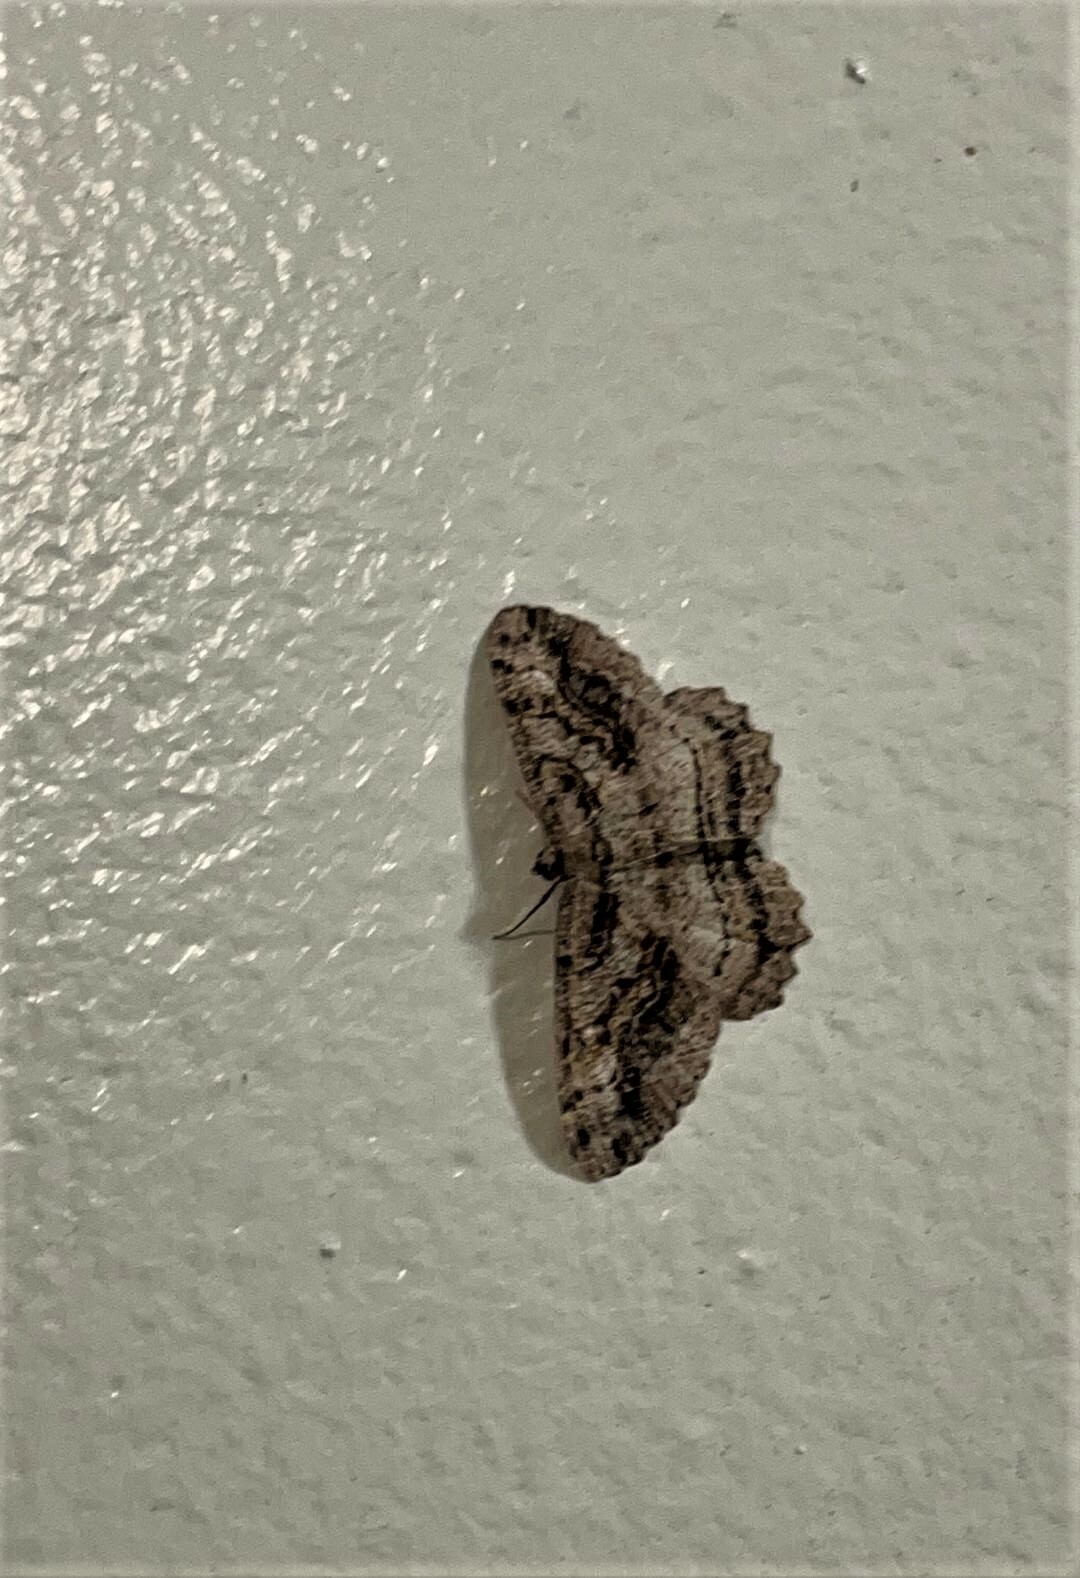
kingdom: Animalia
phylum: Arthropoda
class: Insecta
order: Lepidoptera
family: Geometridae
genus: Neoalcis
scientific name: Neoalcis californiaria
